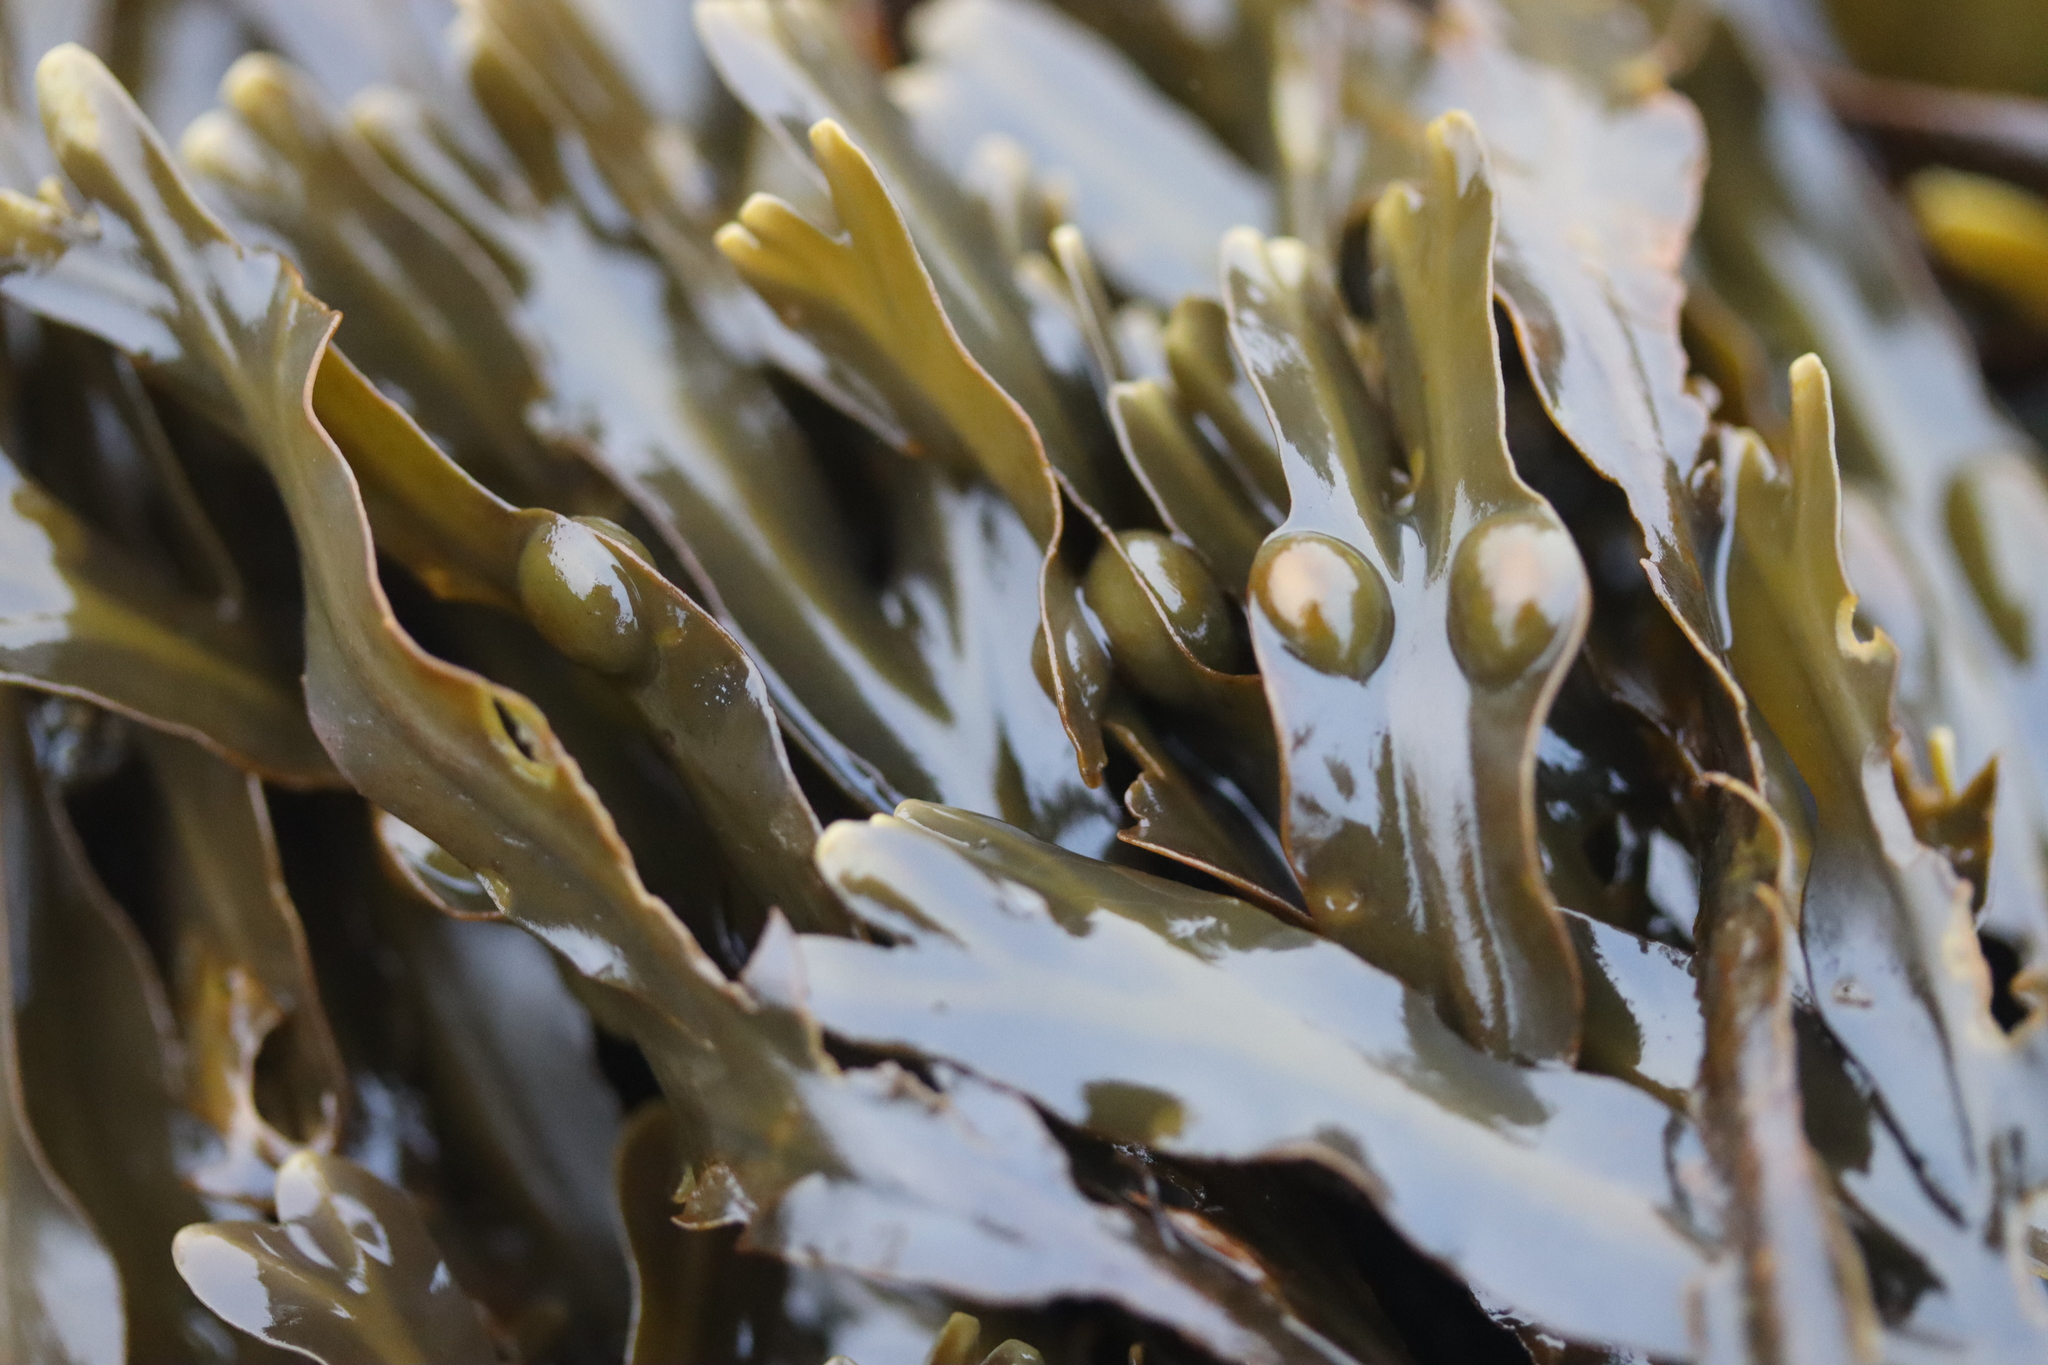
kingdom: Chromista
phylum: Ochrophyta
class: Phaeophyceae
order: Fucales
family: Fucaceae
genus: Fucus
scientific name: Fucus vesiculosus
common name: Bladder wrack
